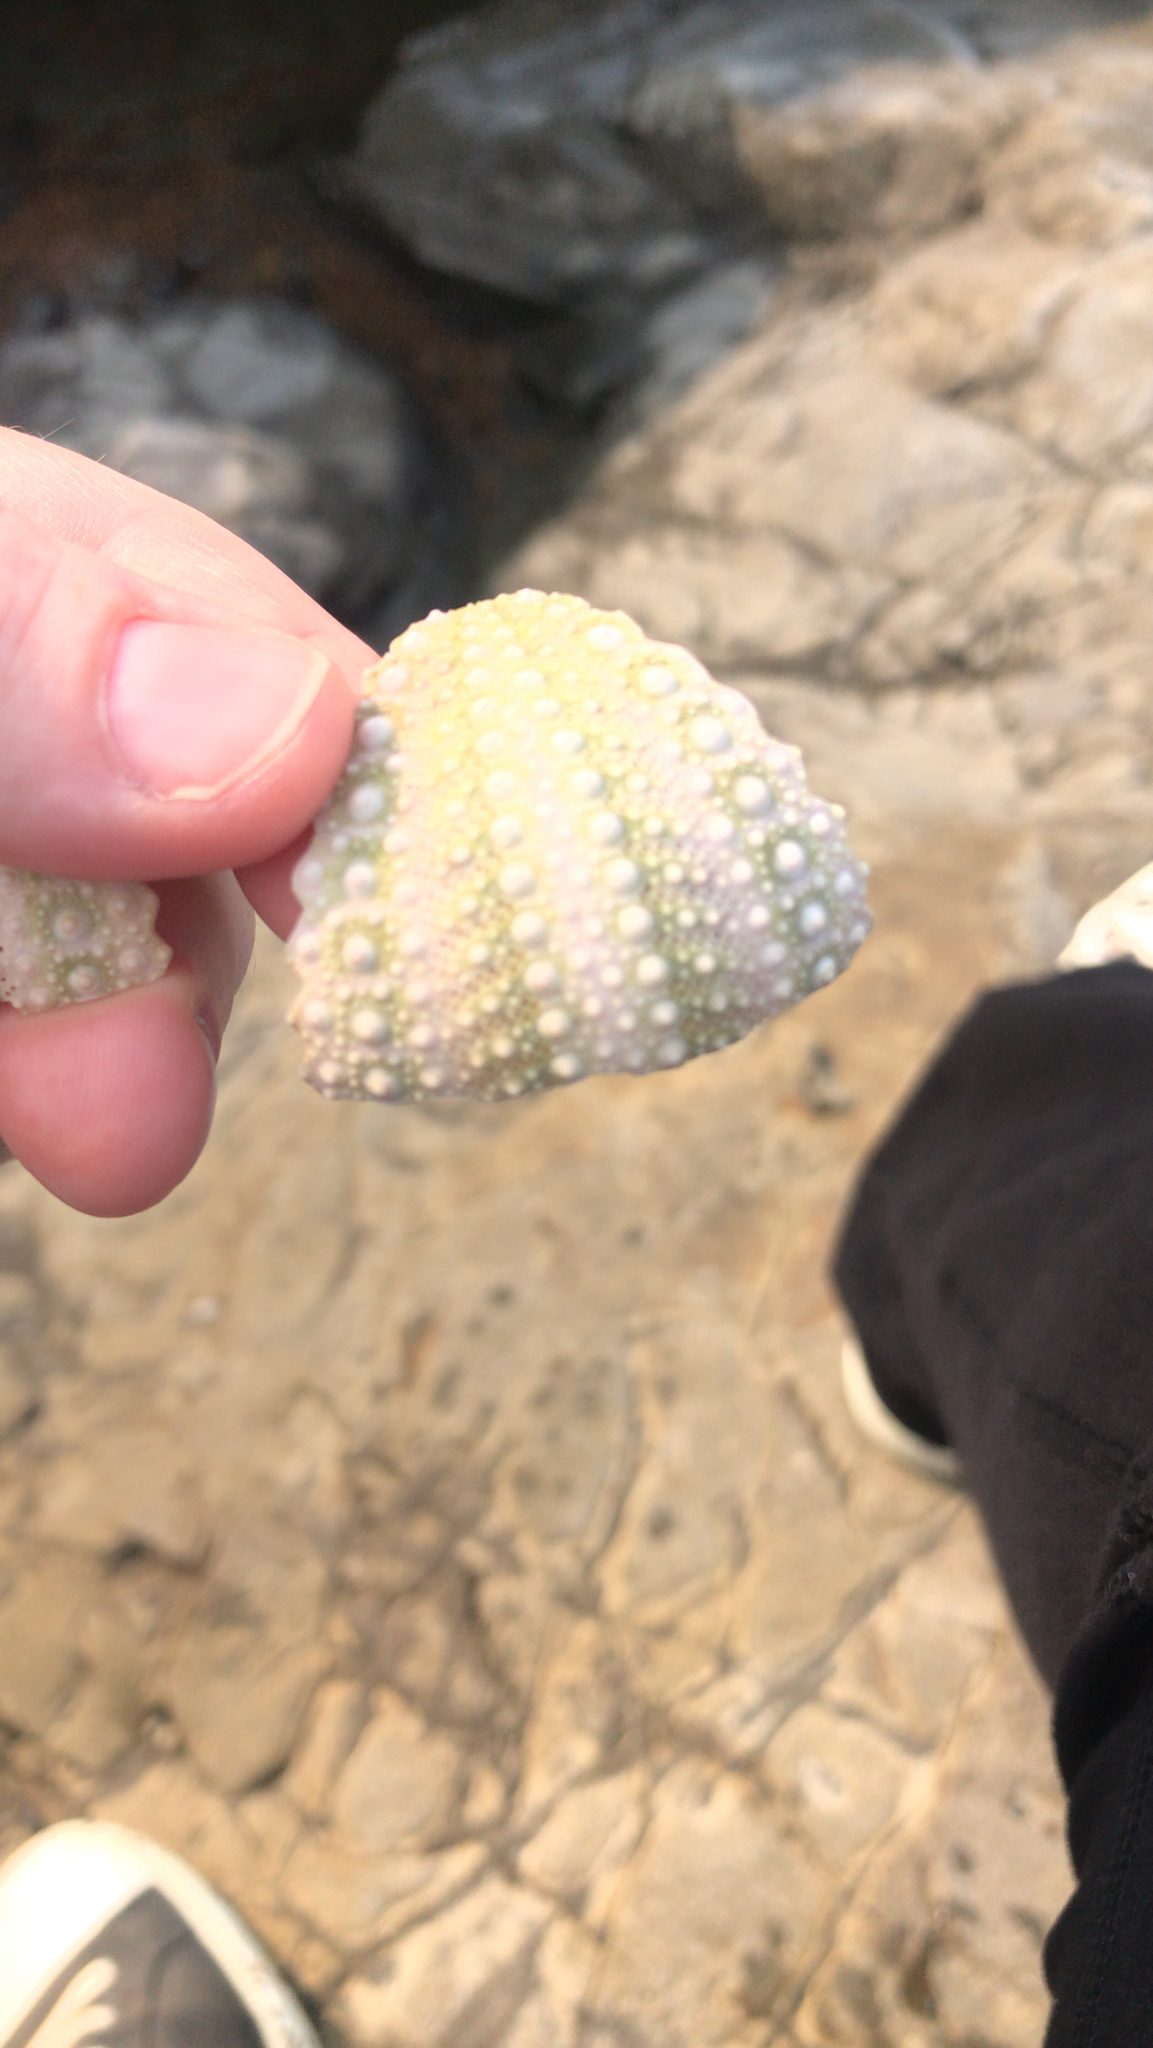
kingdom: Animalia
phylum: Echinodermata
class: Echinoidea
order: Camarodonta
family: Strongylocentrotidae
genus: Strongylocentrotus
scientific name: Strongylocentrotus purpuratus
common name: Purple sea urchin
